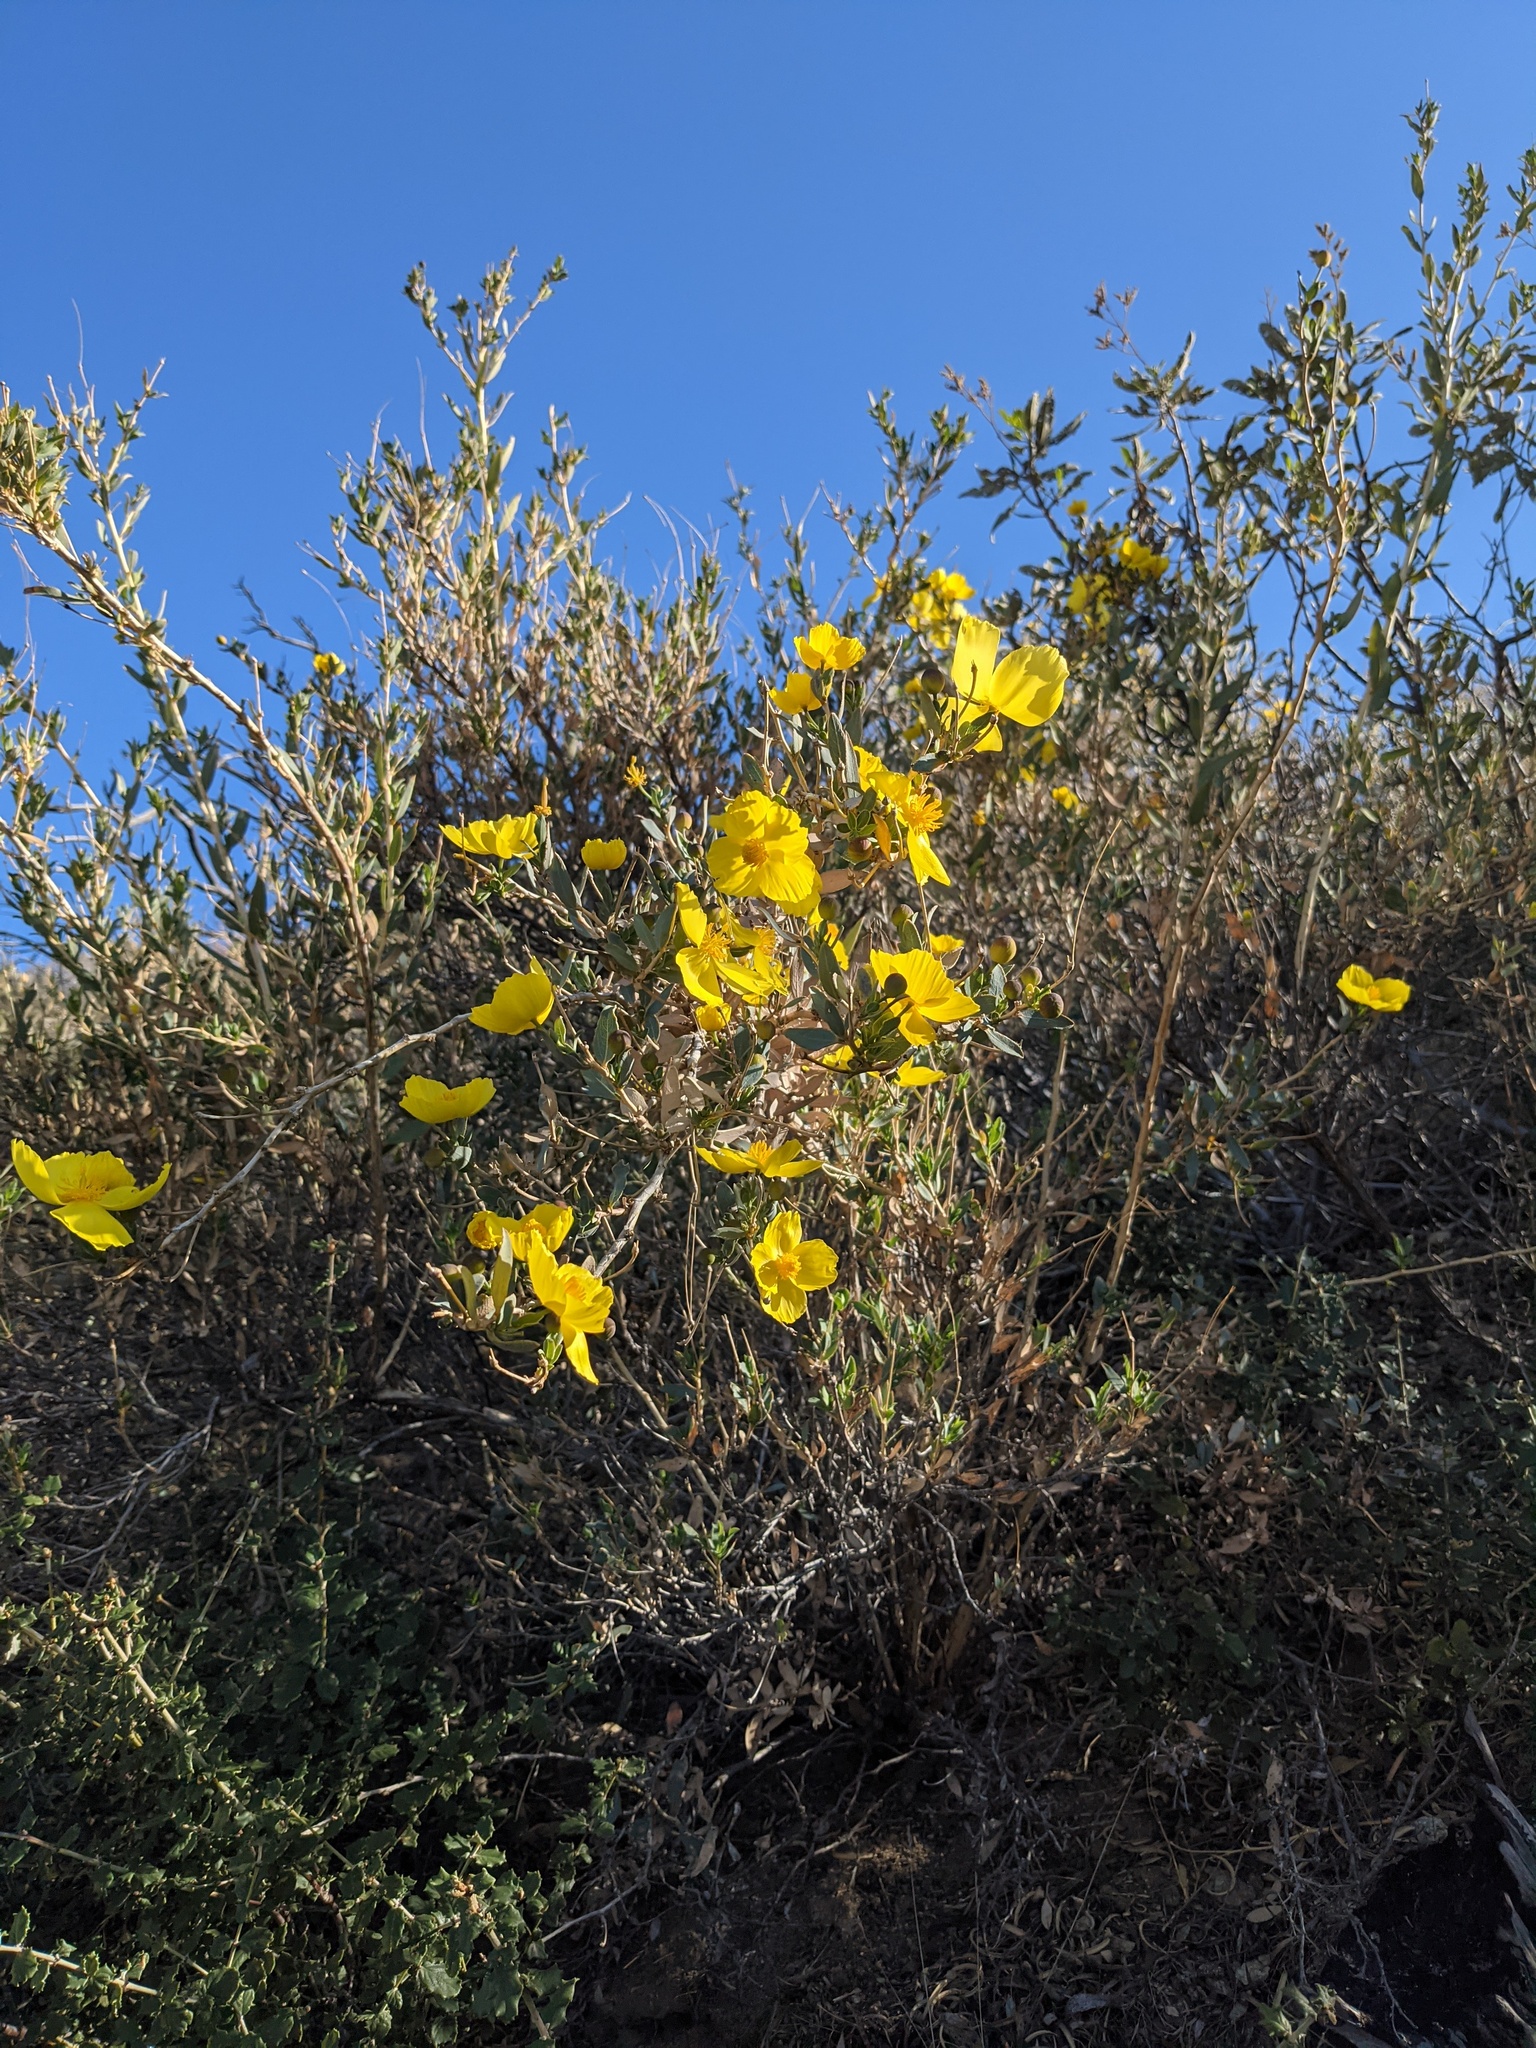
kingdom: Plantae
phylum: Tracheophyta
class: Magnoliopsida
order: Ranunculales
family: Papaveraceae
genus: Dendromecon
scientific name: Dendromecon rigida
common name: Tree poppy
